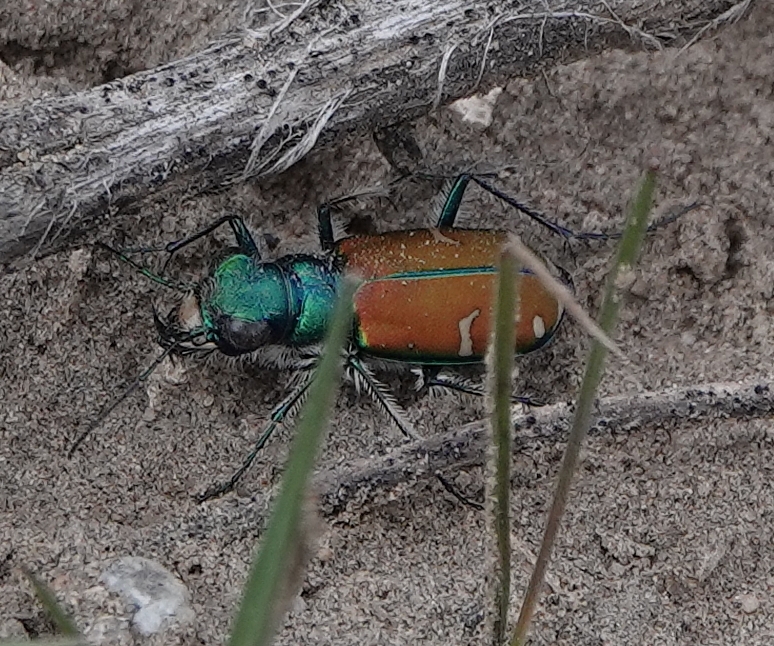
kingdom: Animalia
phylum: Arthropoda
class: Insecta
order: Coleoptera
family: Carabidae
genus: Cicindela
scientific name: Cicindela splendida
